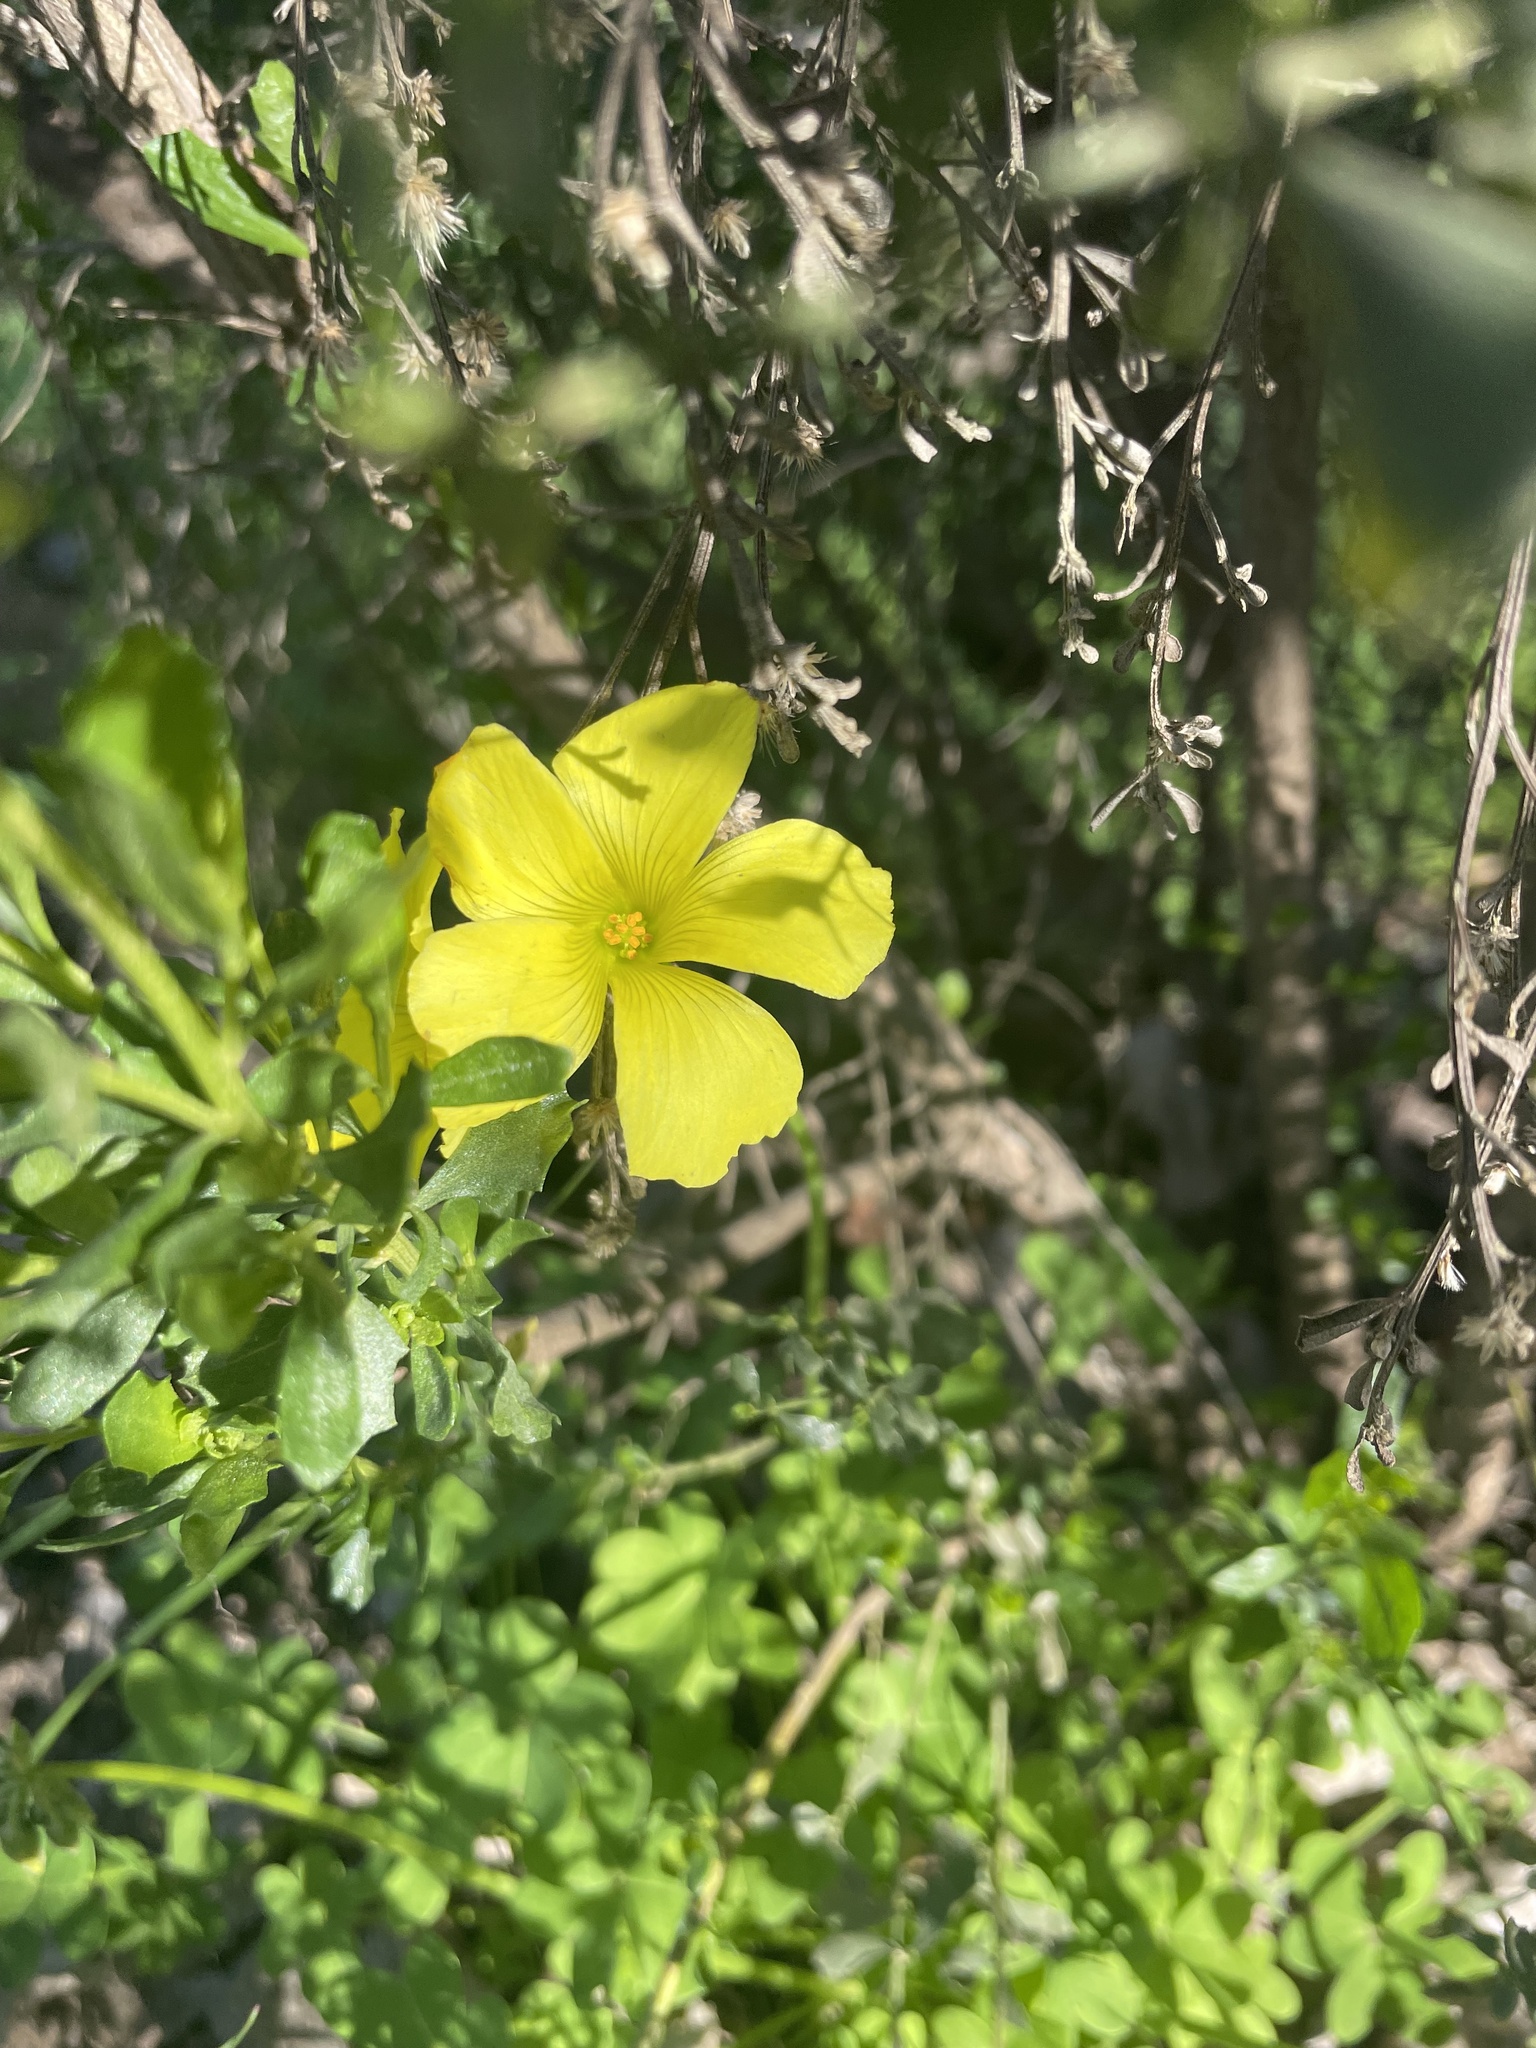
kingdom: Plantae
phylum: Tracheophyta
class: Magnoliopsida
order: Oxalidales
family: Oxalidaceae
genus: Oxalis
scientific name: Oxalis pes-caprae
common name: Bermuda-buttercup
